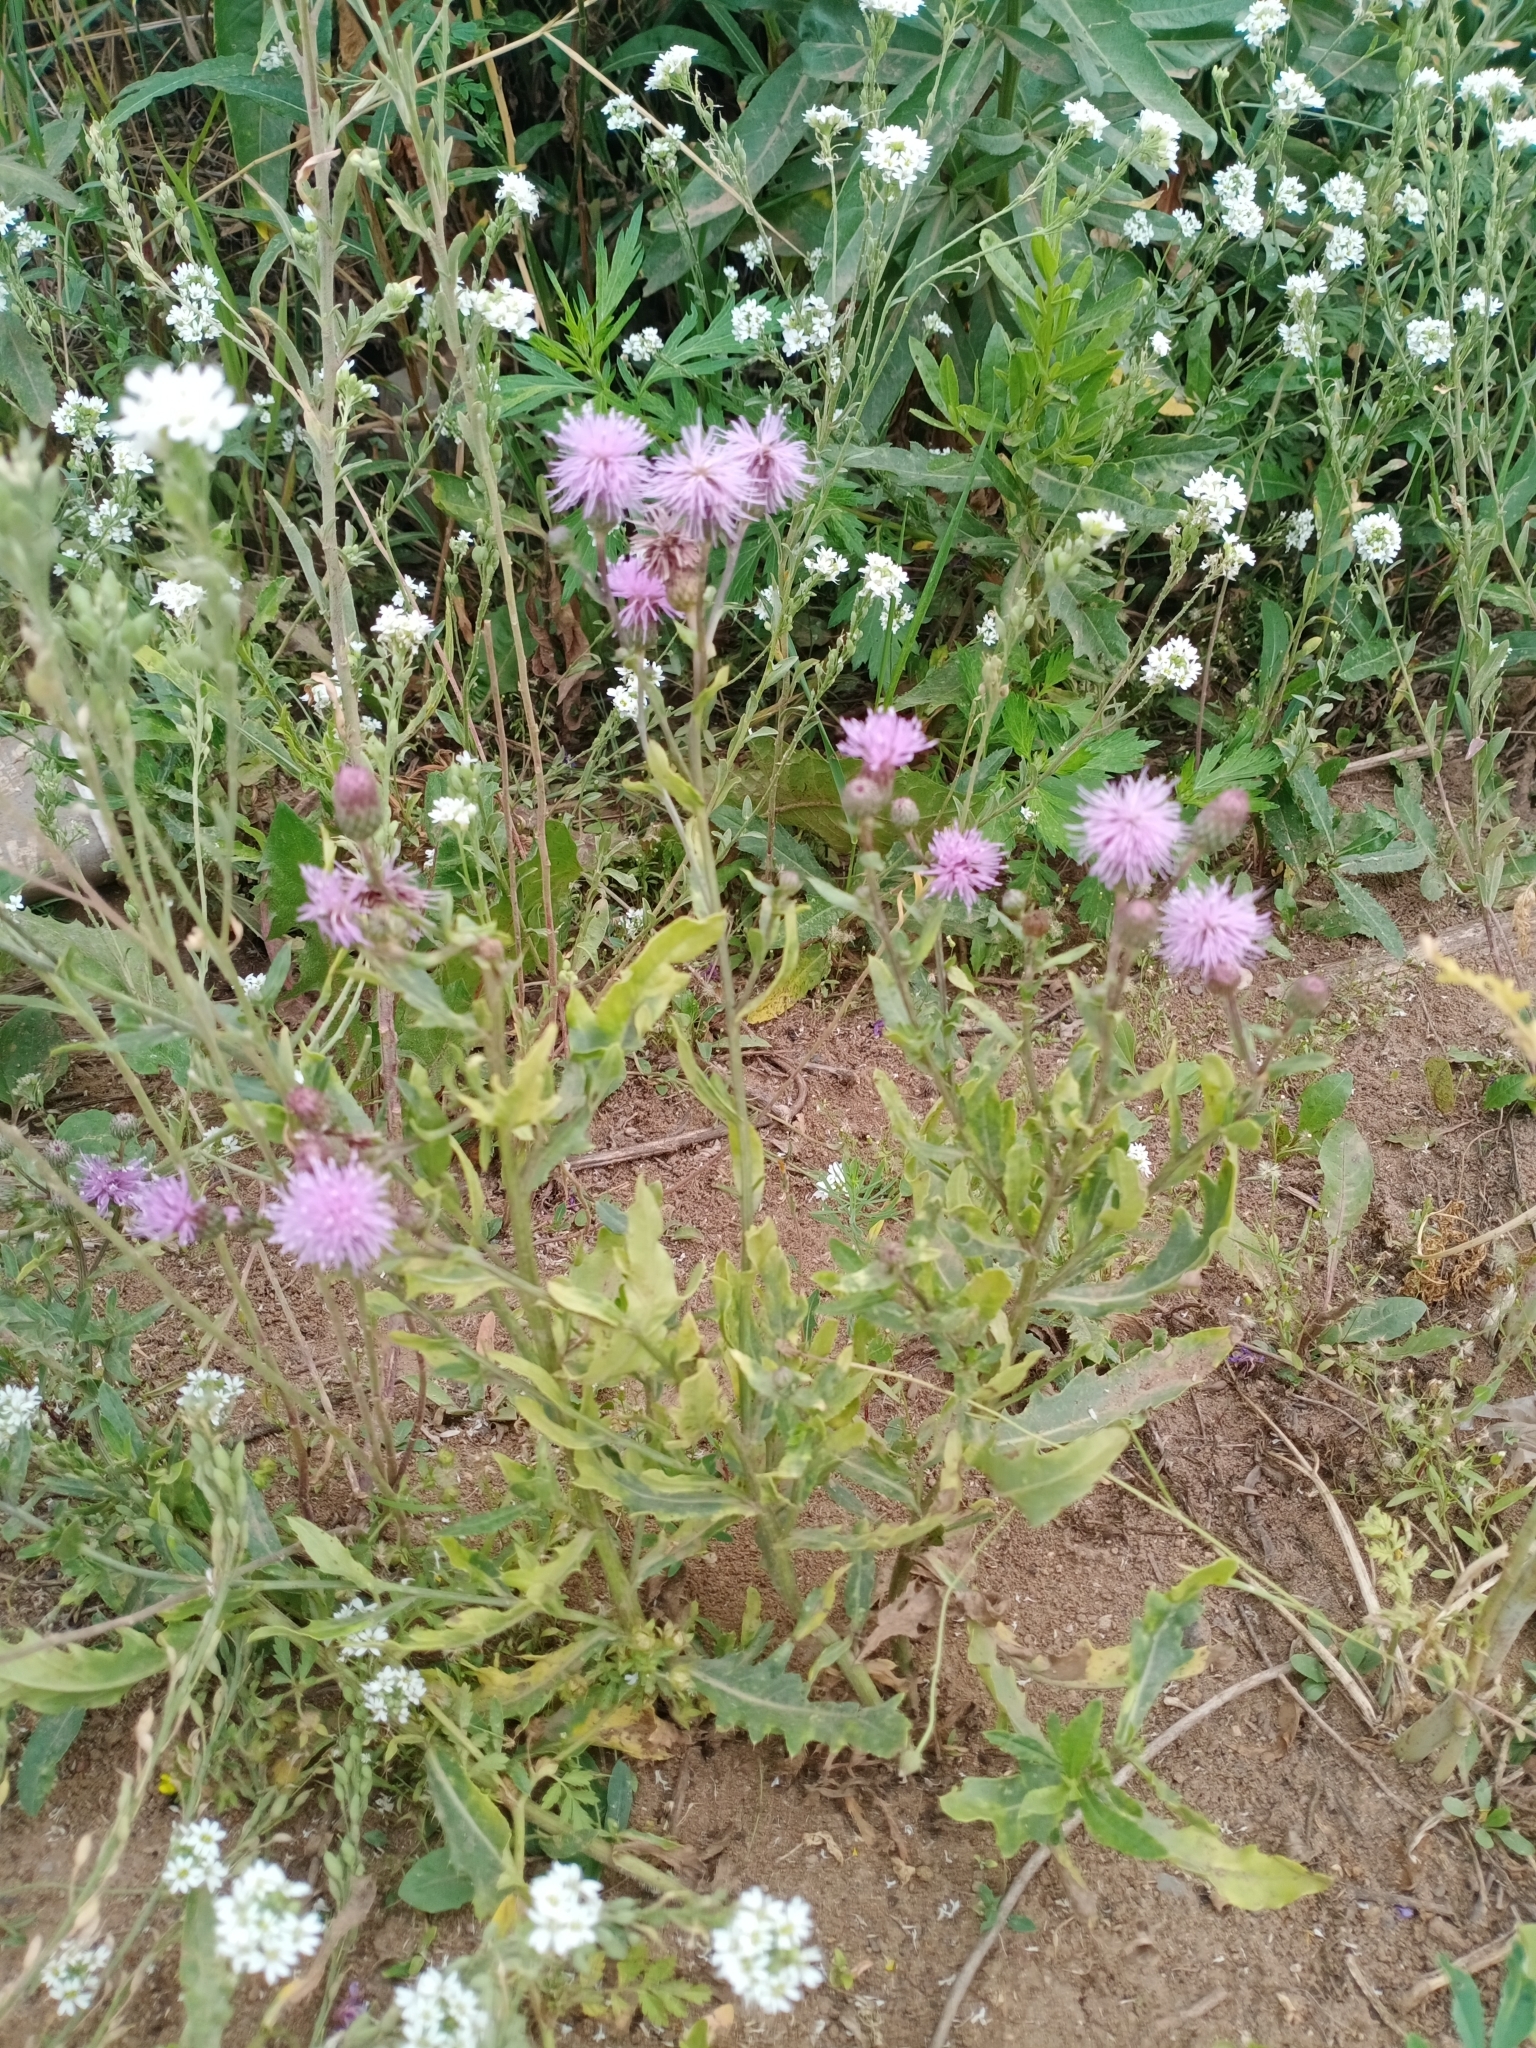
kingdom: Plantae
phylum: Tracheophyta
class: Magnoliopsida
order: Asterales
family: Asteraceae
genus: Cirsium
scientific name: Cirsium arvense
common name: Creeping thistle
